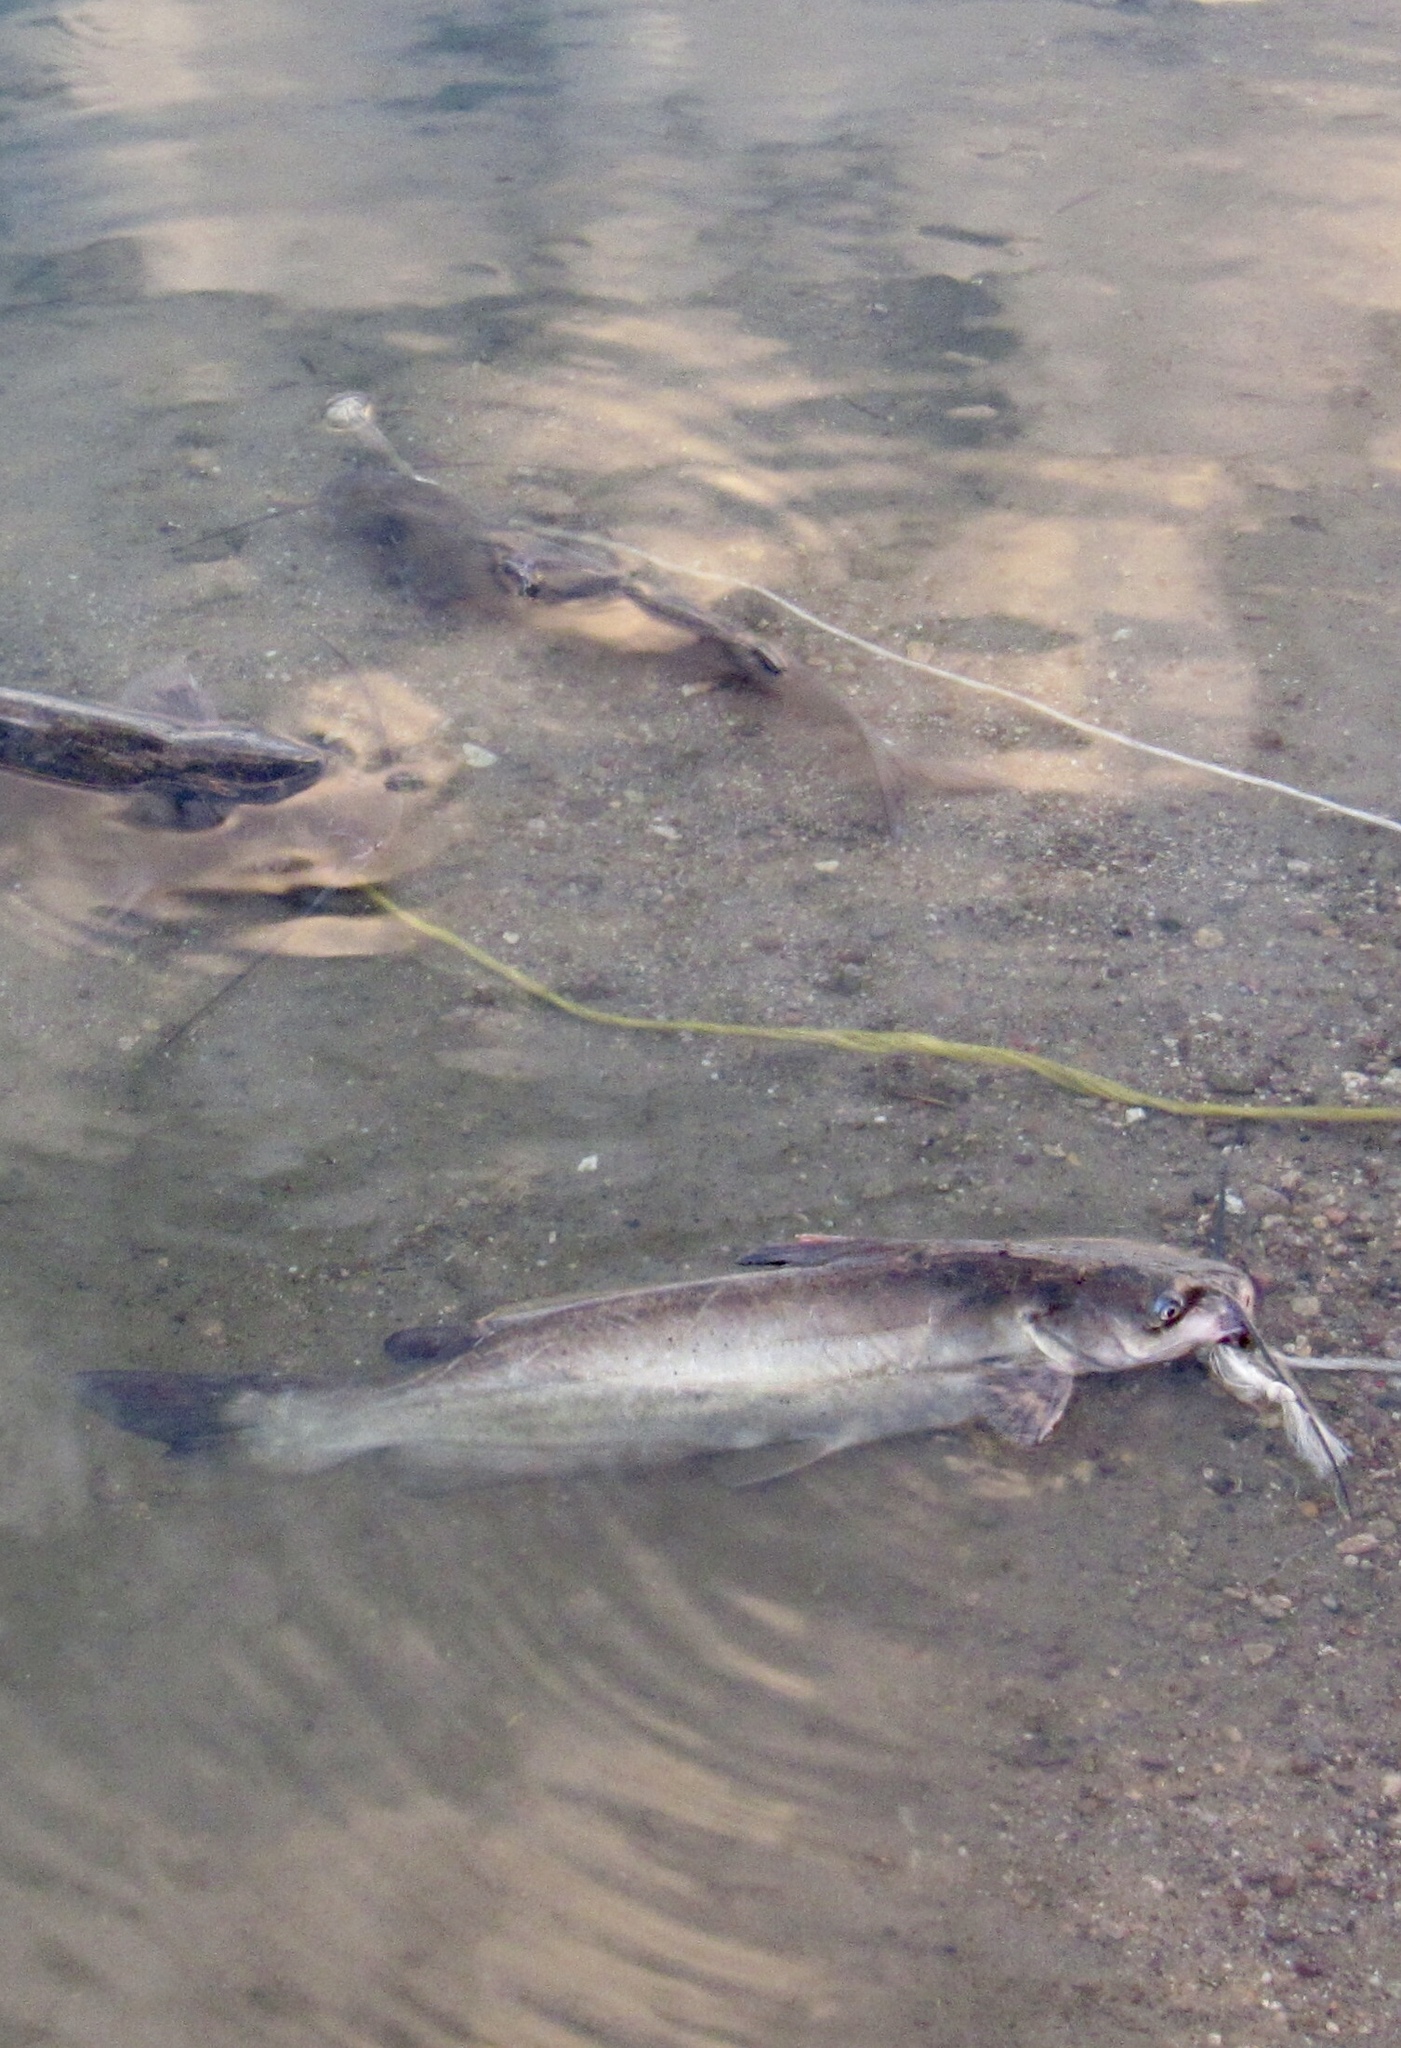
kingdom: Animalia
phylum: Chordata
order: Siluriformes
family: Ictaluridae
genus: Ictalurus
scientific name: Ictalurus punctatus
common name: Channel catfish
